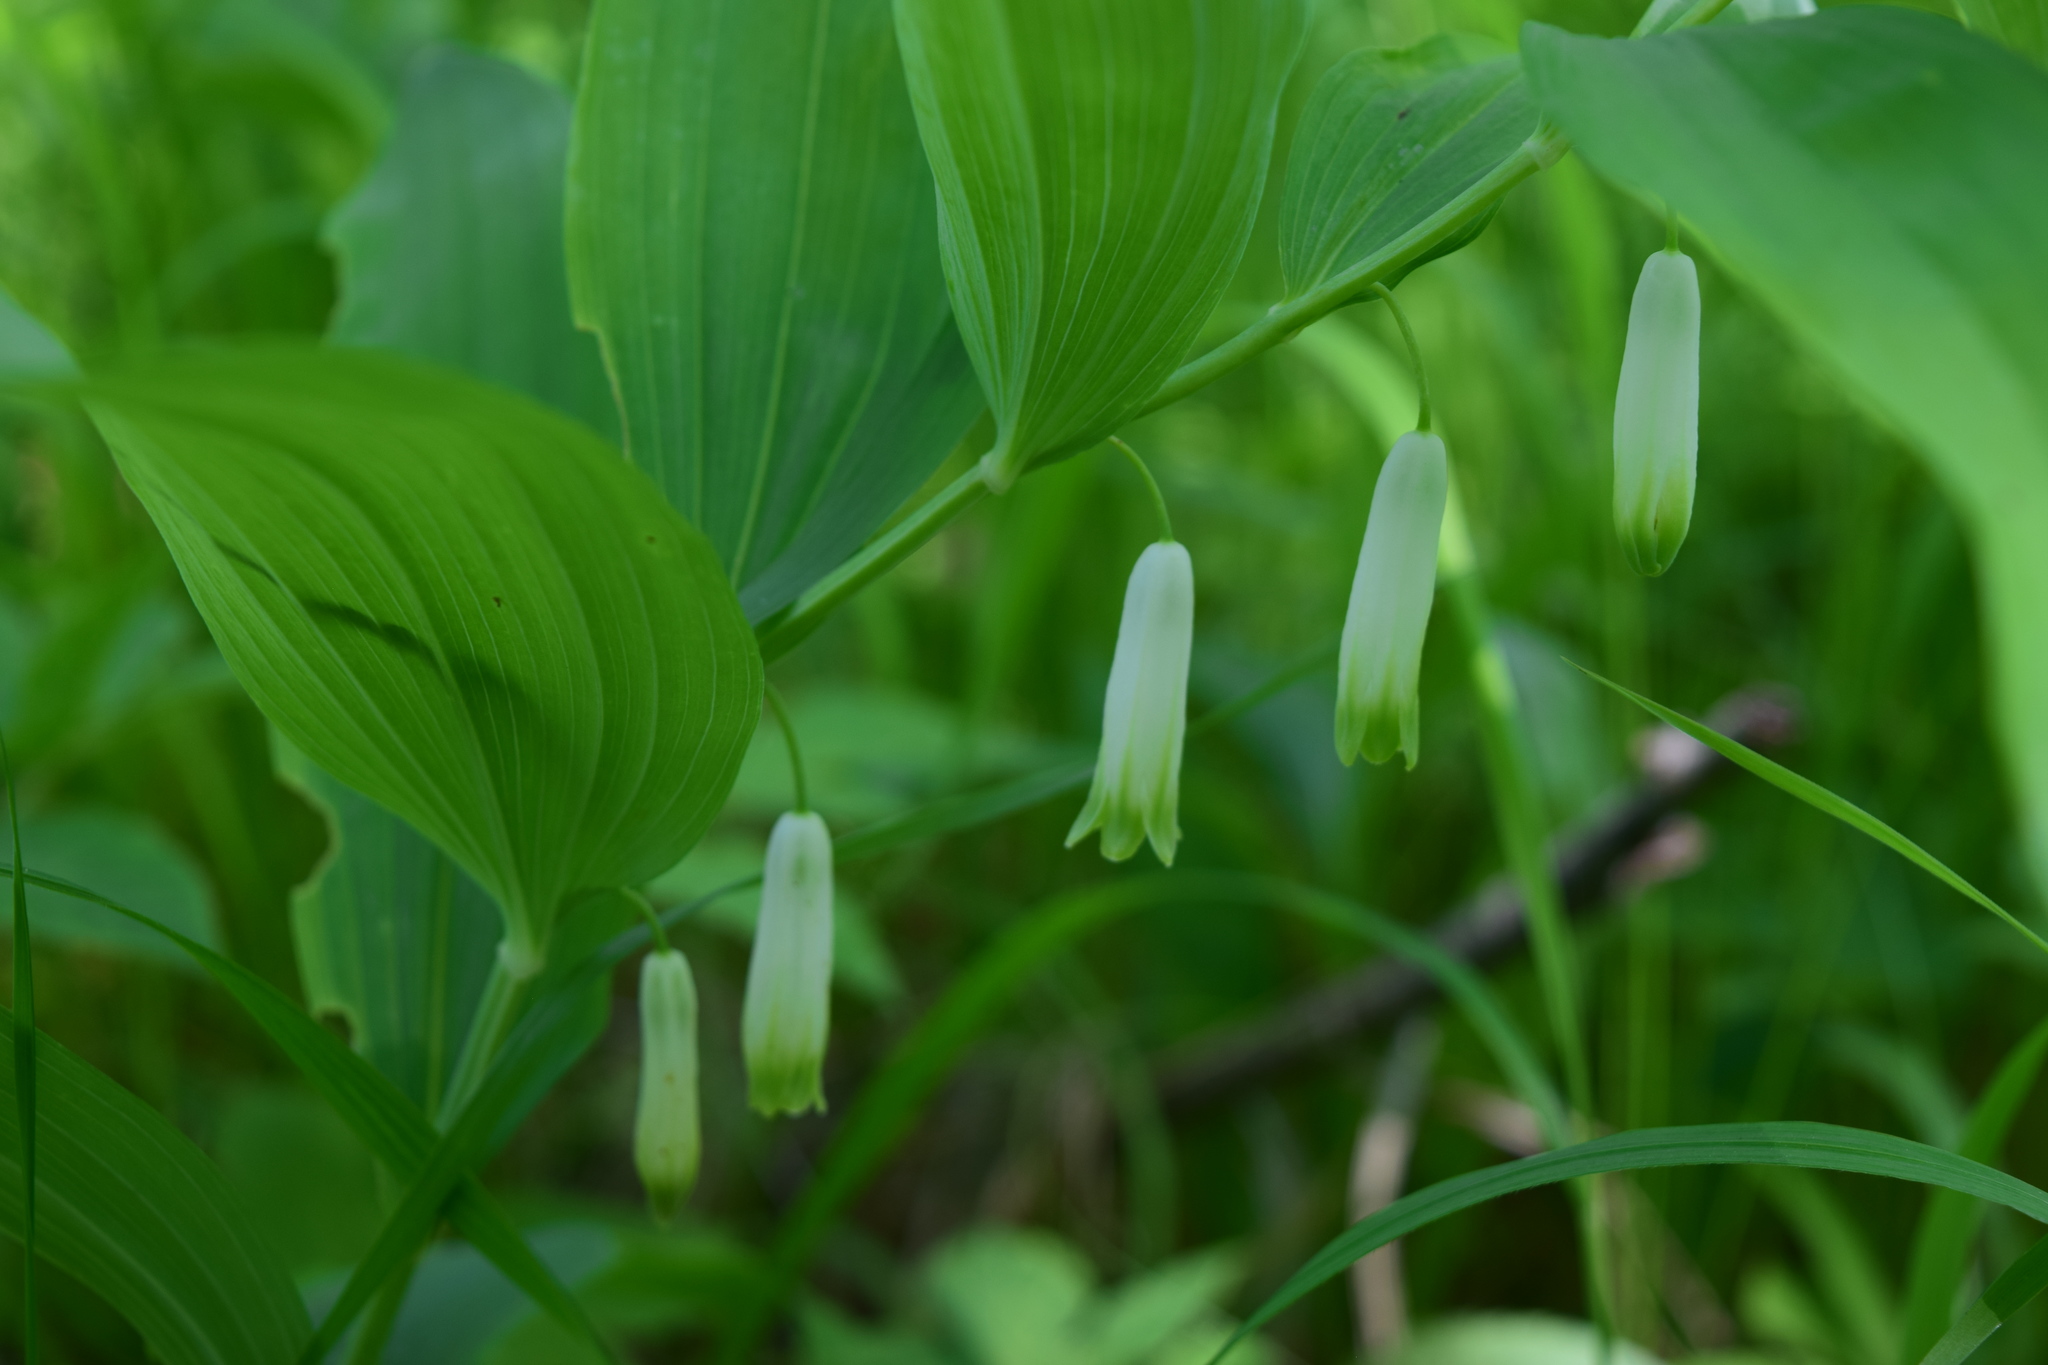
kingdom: Plantae
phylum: Tracheophyta
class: Liliopsida
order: Asparagales
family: Asparagaceae
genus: Polygonatum
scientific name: Polygonatum odoratum
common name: Angular solomon's-seal
